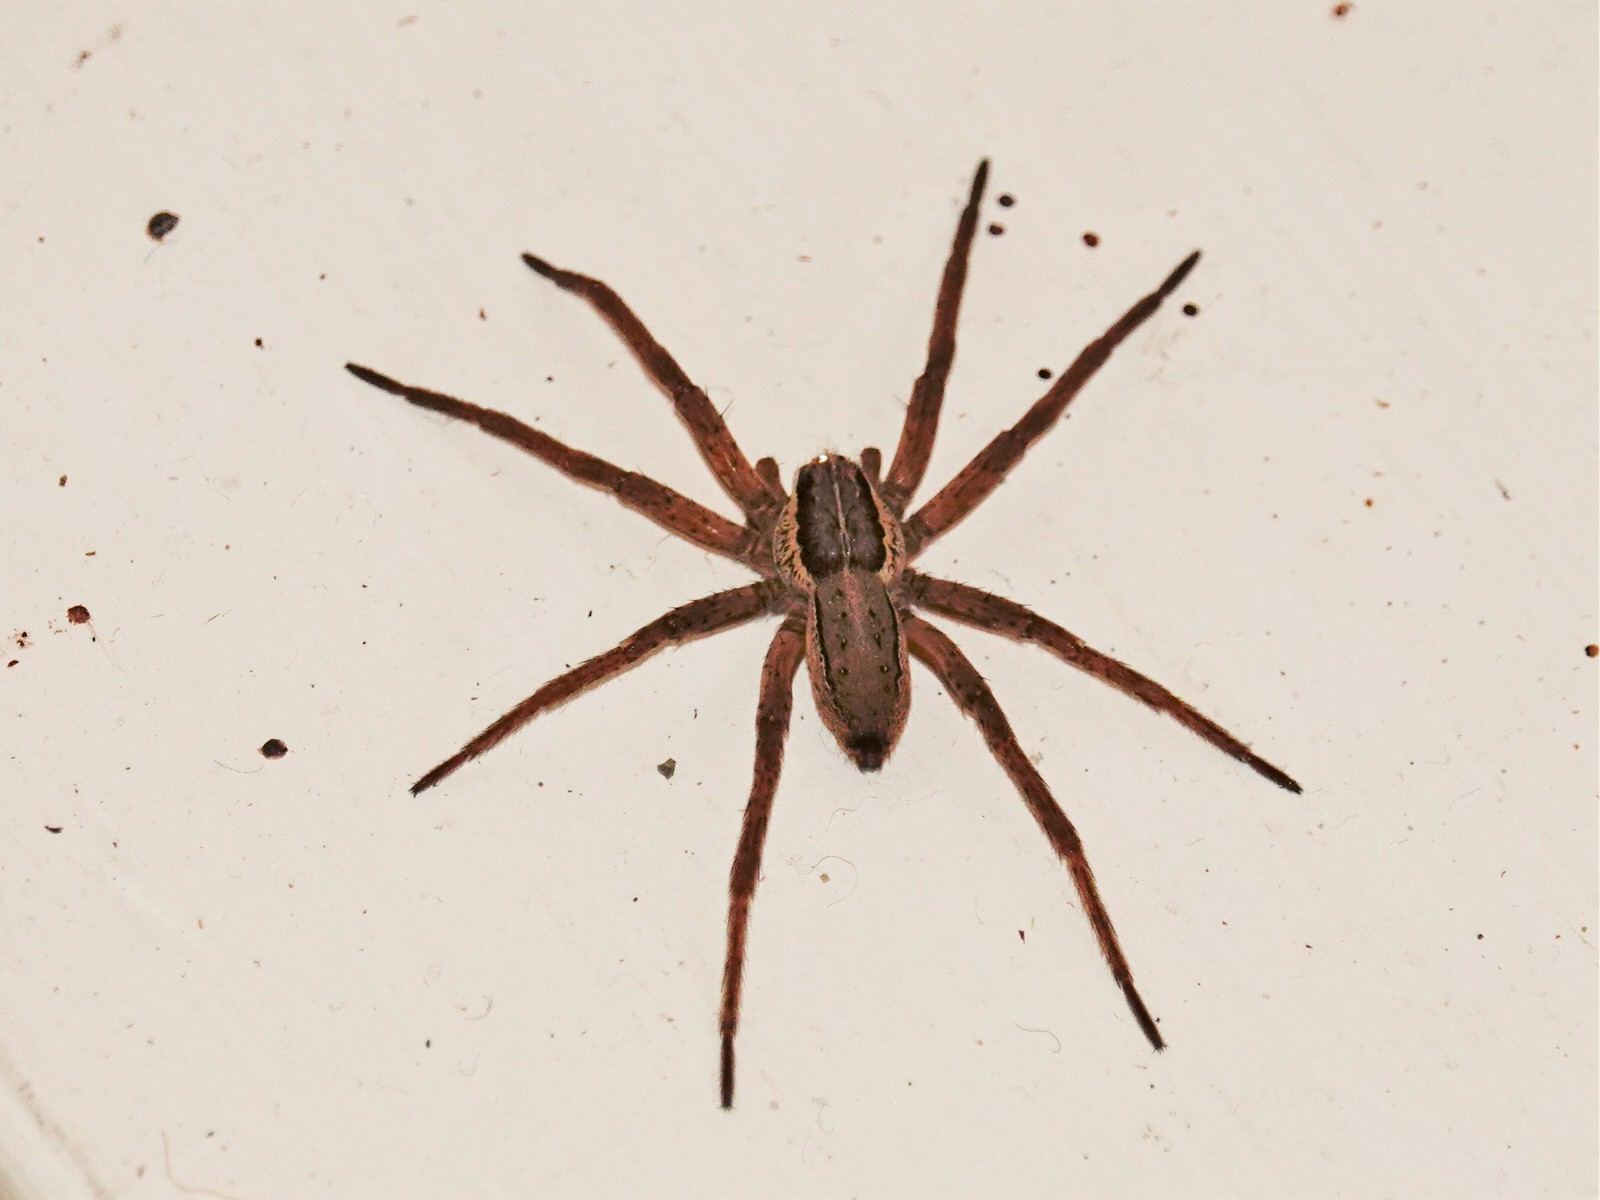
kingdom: Animalia
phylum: Arthropoda
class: Arachnida
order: Araneae
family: Pisauridae
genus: Dolomedes
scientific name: Dolomedes minor
